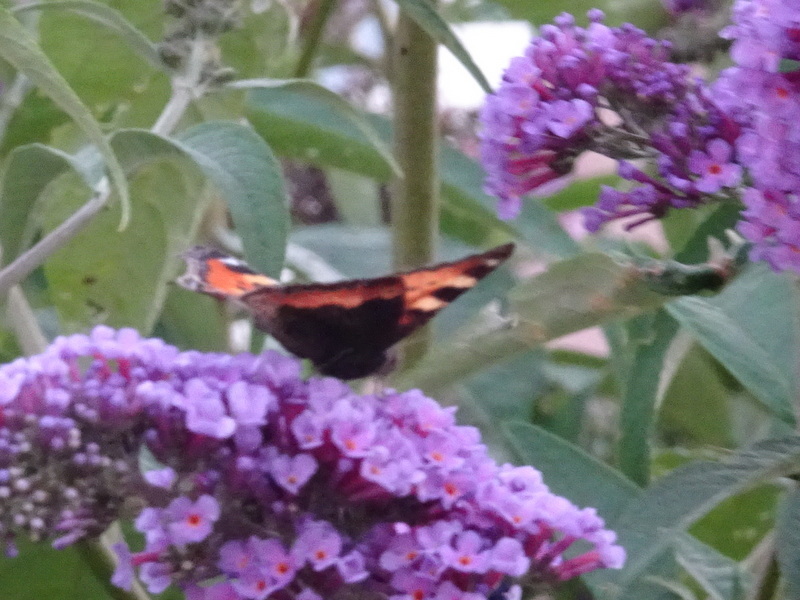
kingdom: Animalia
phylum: Arthropoda
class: Insecta
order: Lepidoptera
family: Nymphalidae
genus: Aglais
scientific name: Aglais urticae
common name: Small tortoiseshell
